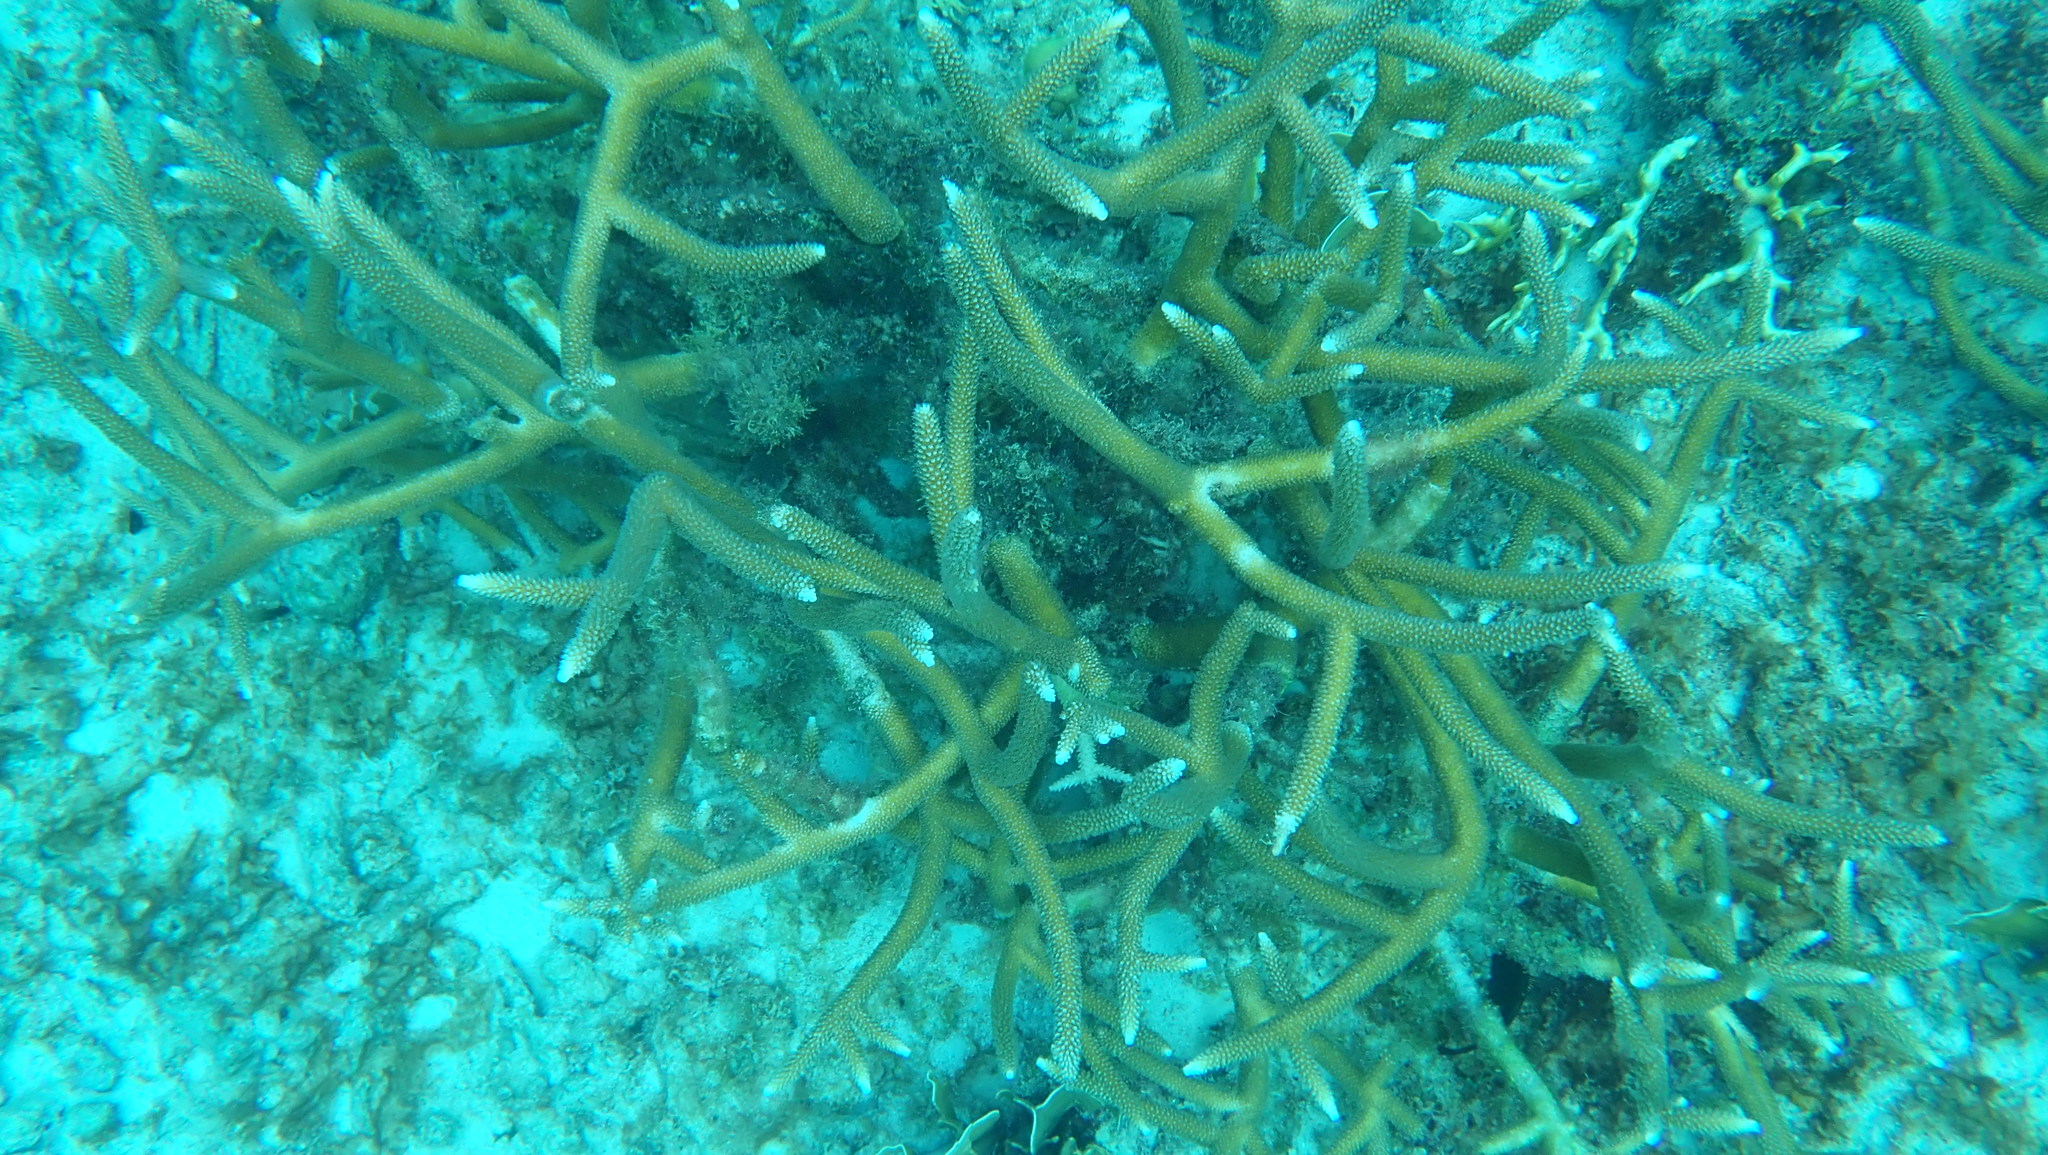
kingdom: Animalia
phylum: Cnidaria
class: Anthozoa
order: Scleractinia
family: Acroporidae
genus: Acropora
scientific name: Acropora cervicornis
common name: Staghorn coral
